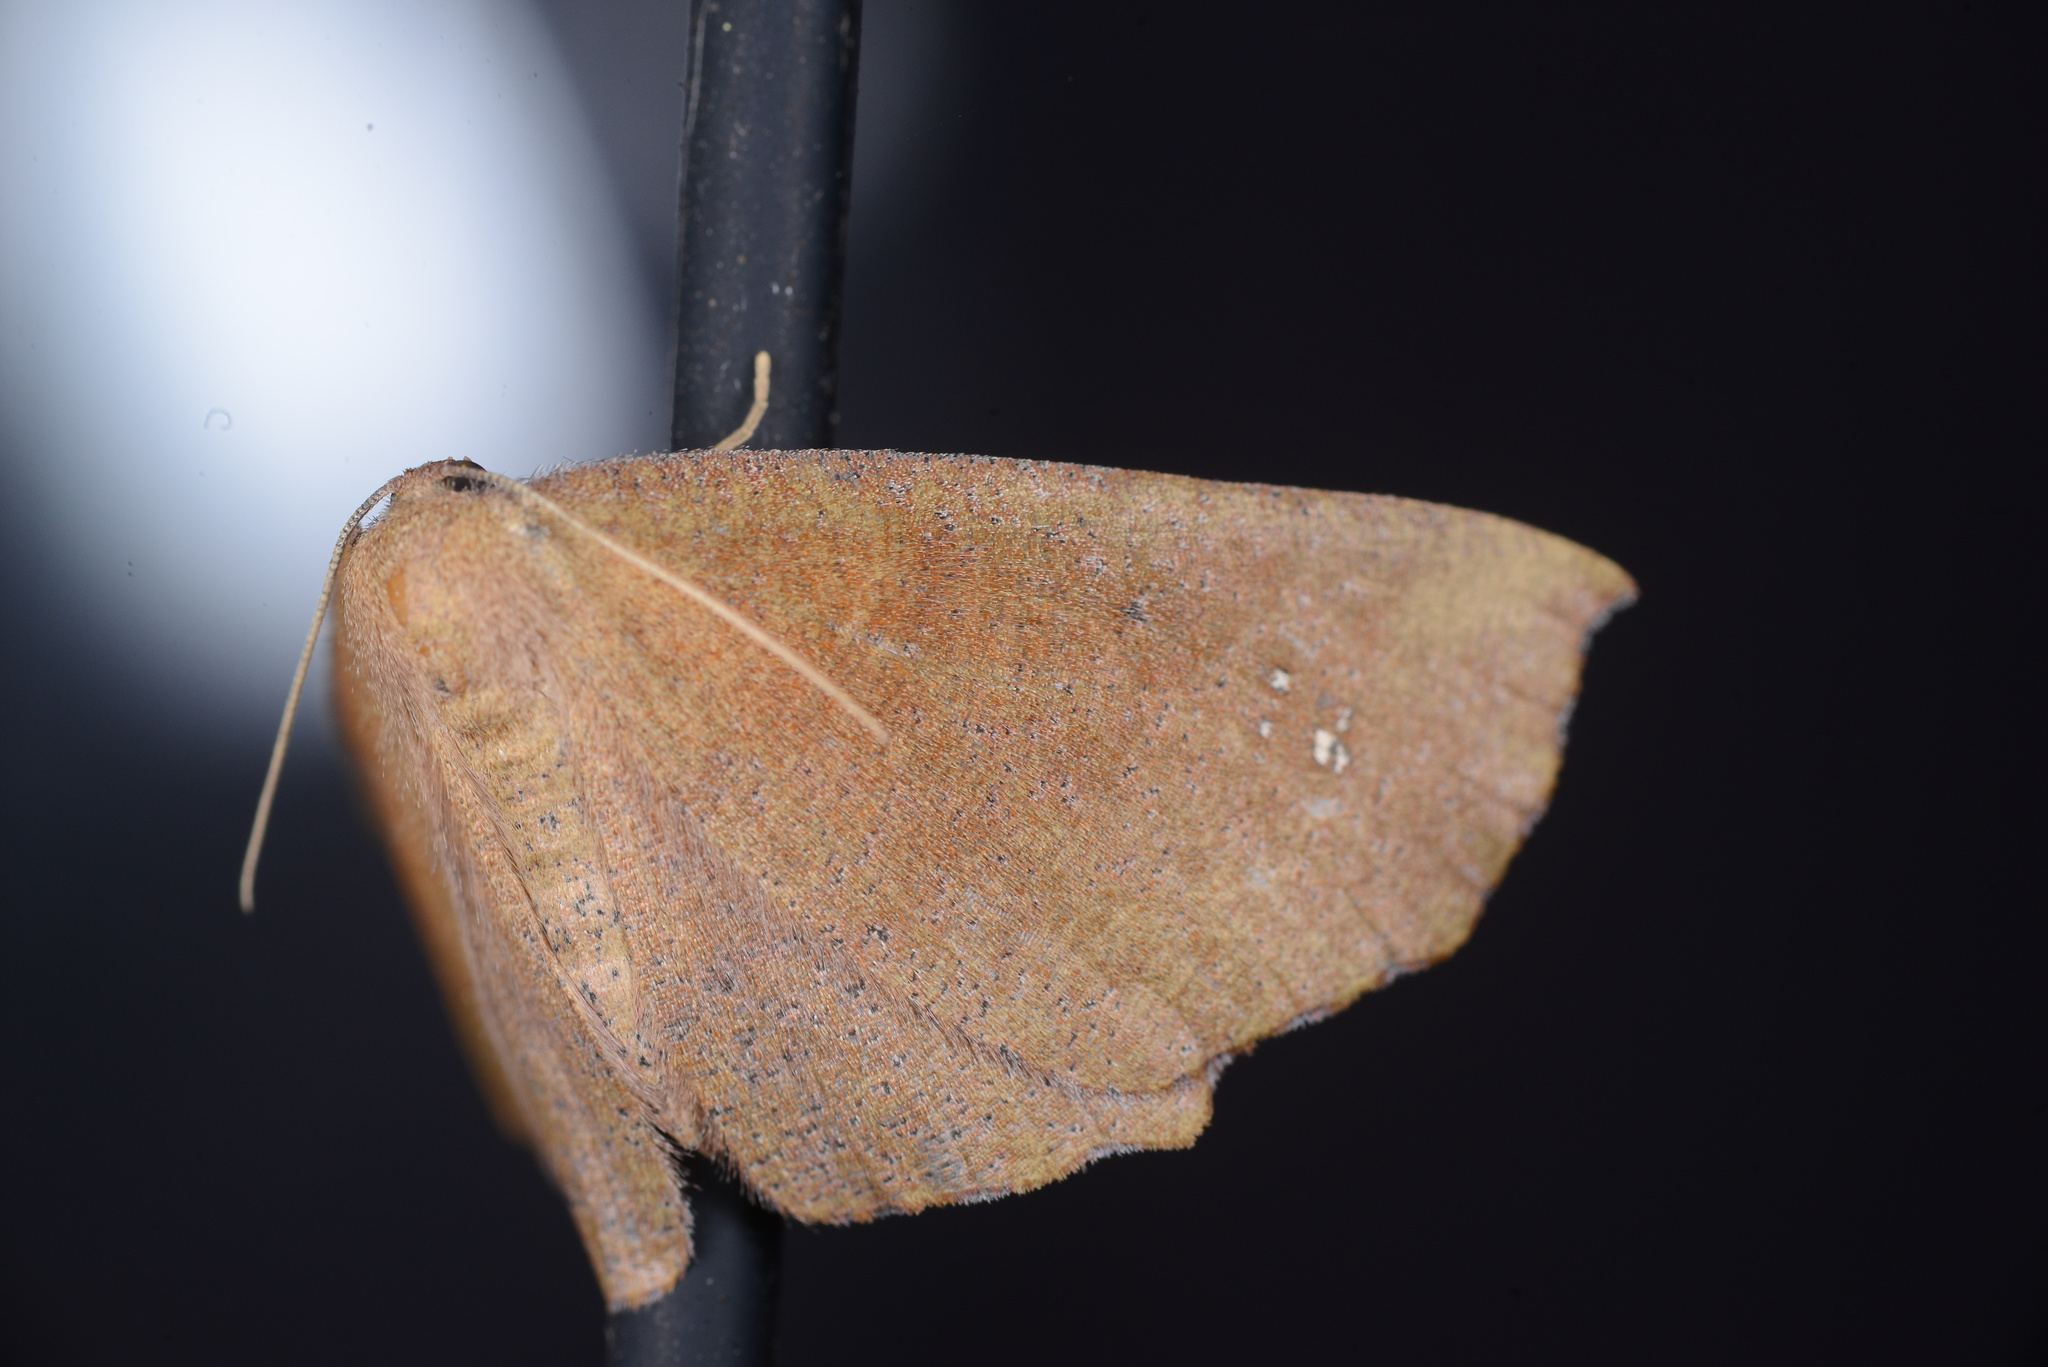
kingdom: Animalia
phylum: Arthropoda
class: Insecta
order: Lepidoptera
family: Geometridae
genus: Xyridacma
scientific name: Xyridacma ustaria
